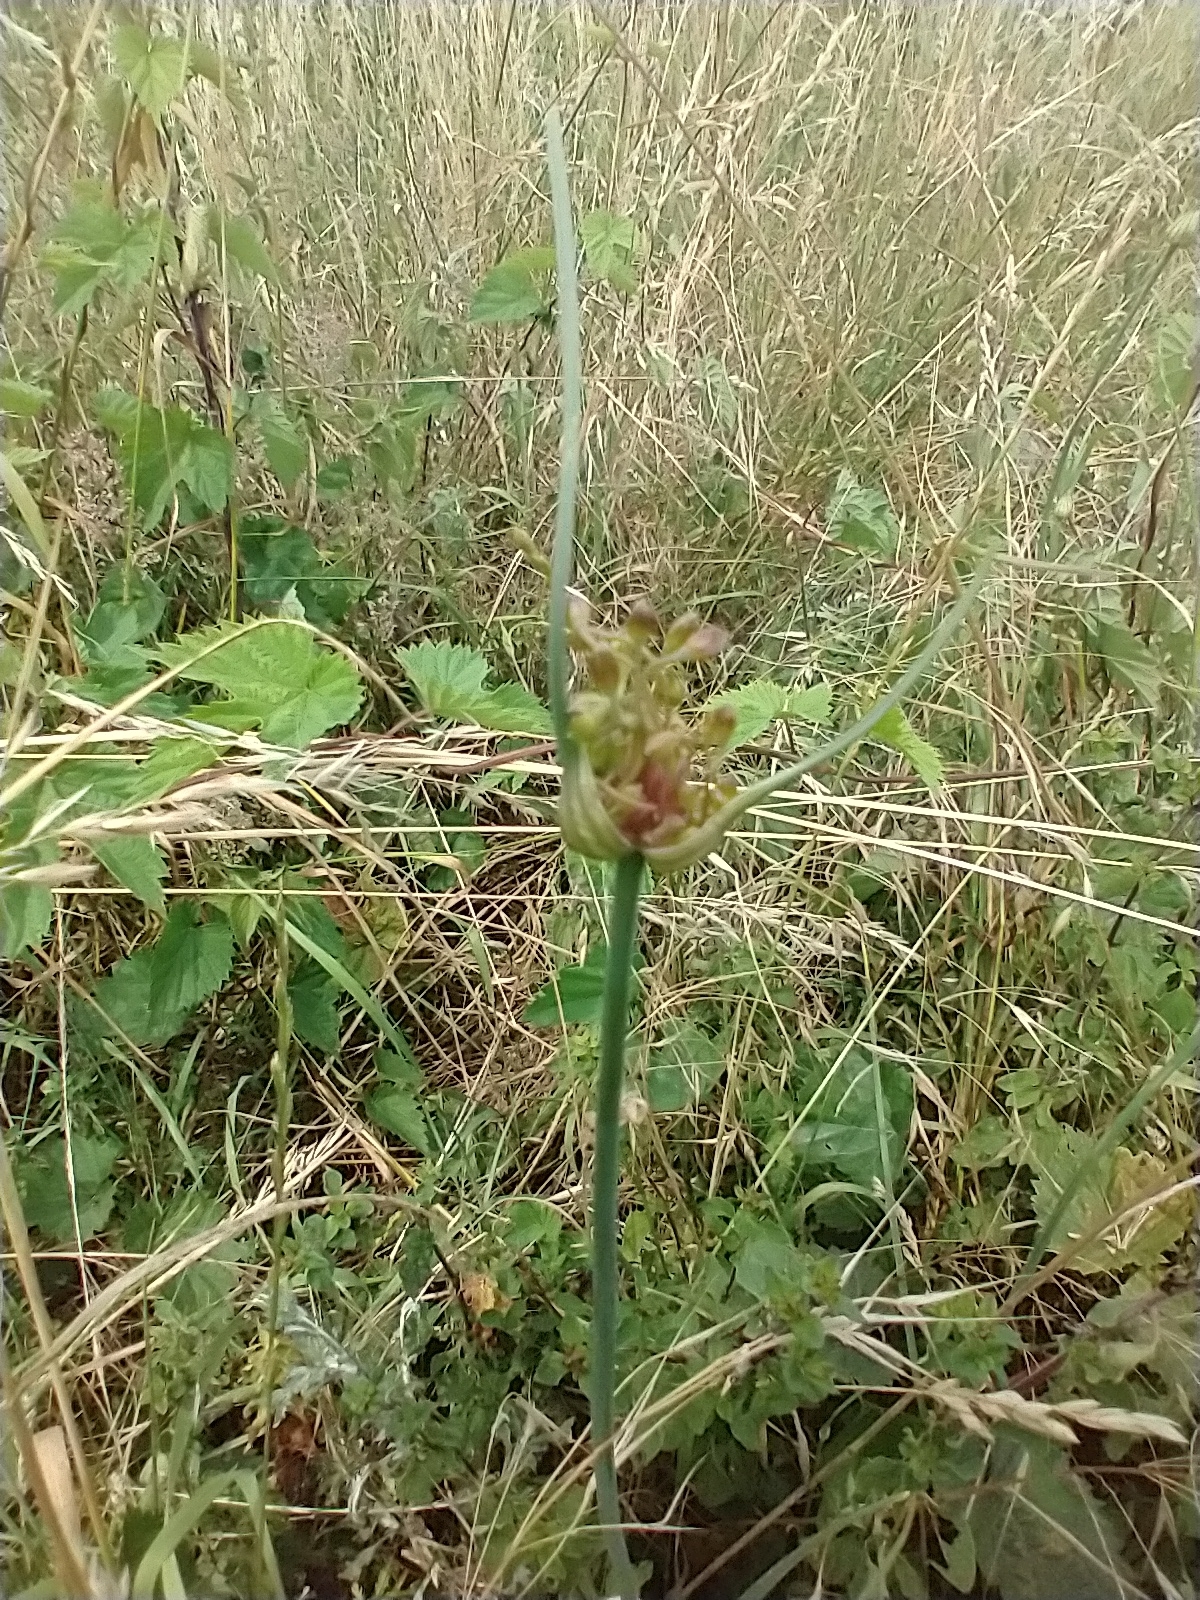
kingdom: Plantae
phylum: Tracheophyta
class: Liliopsida
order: Asparagales
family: Amaryllidaceae
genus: Allium
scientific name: Allium oleraceum
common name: Field garlic
